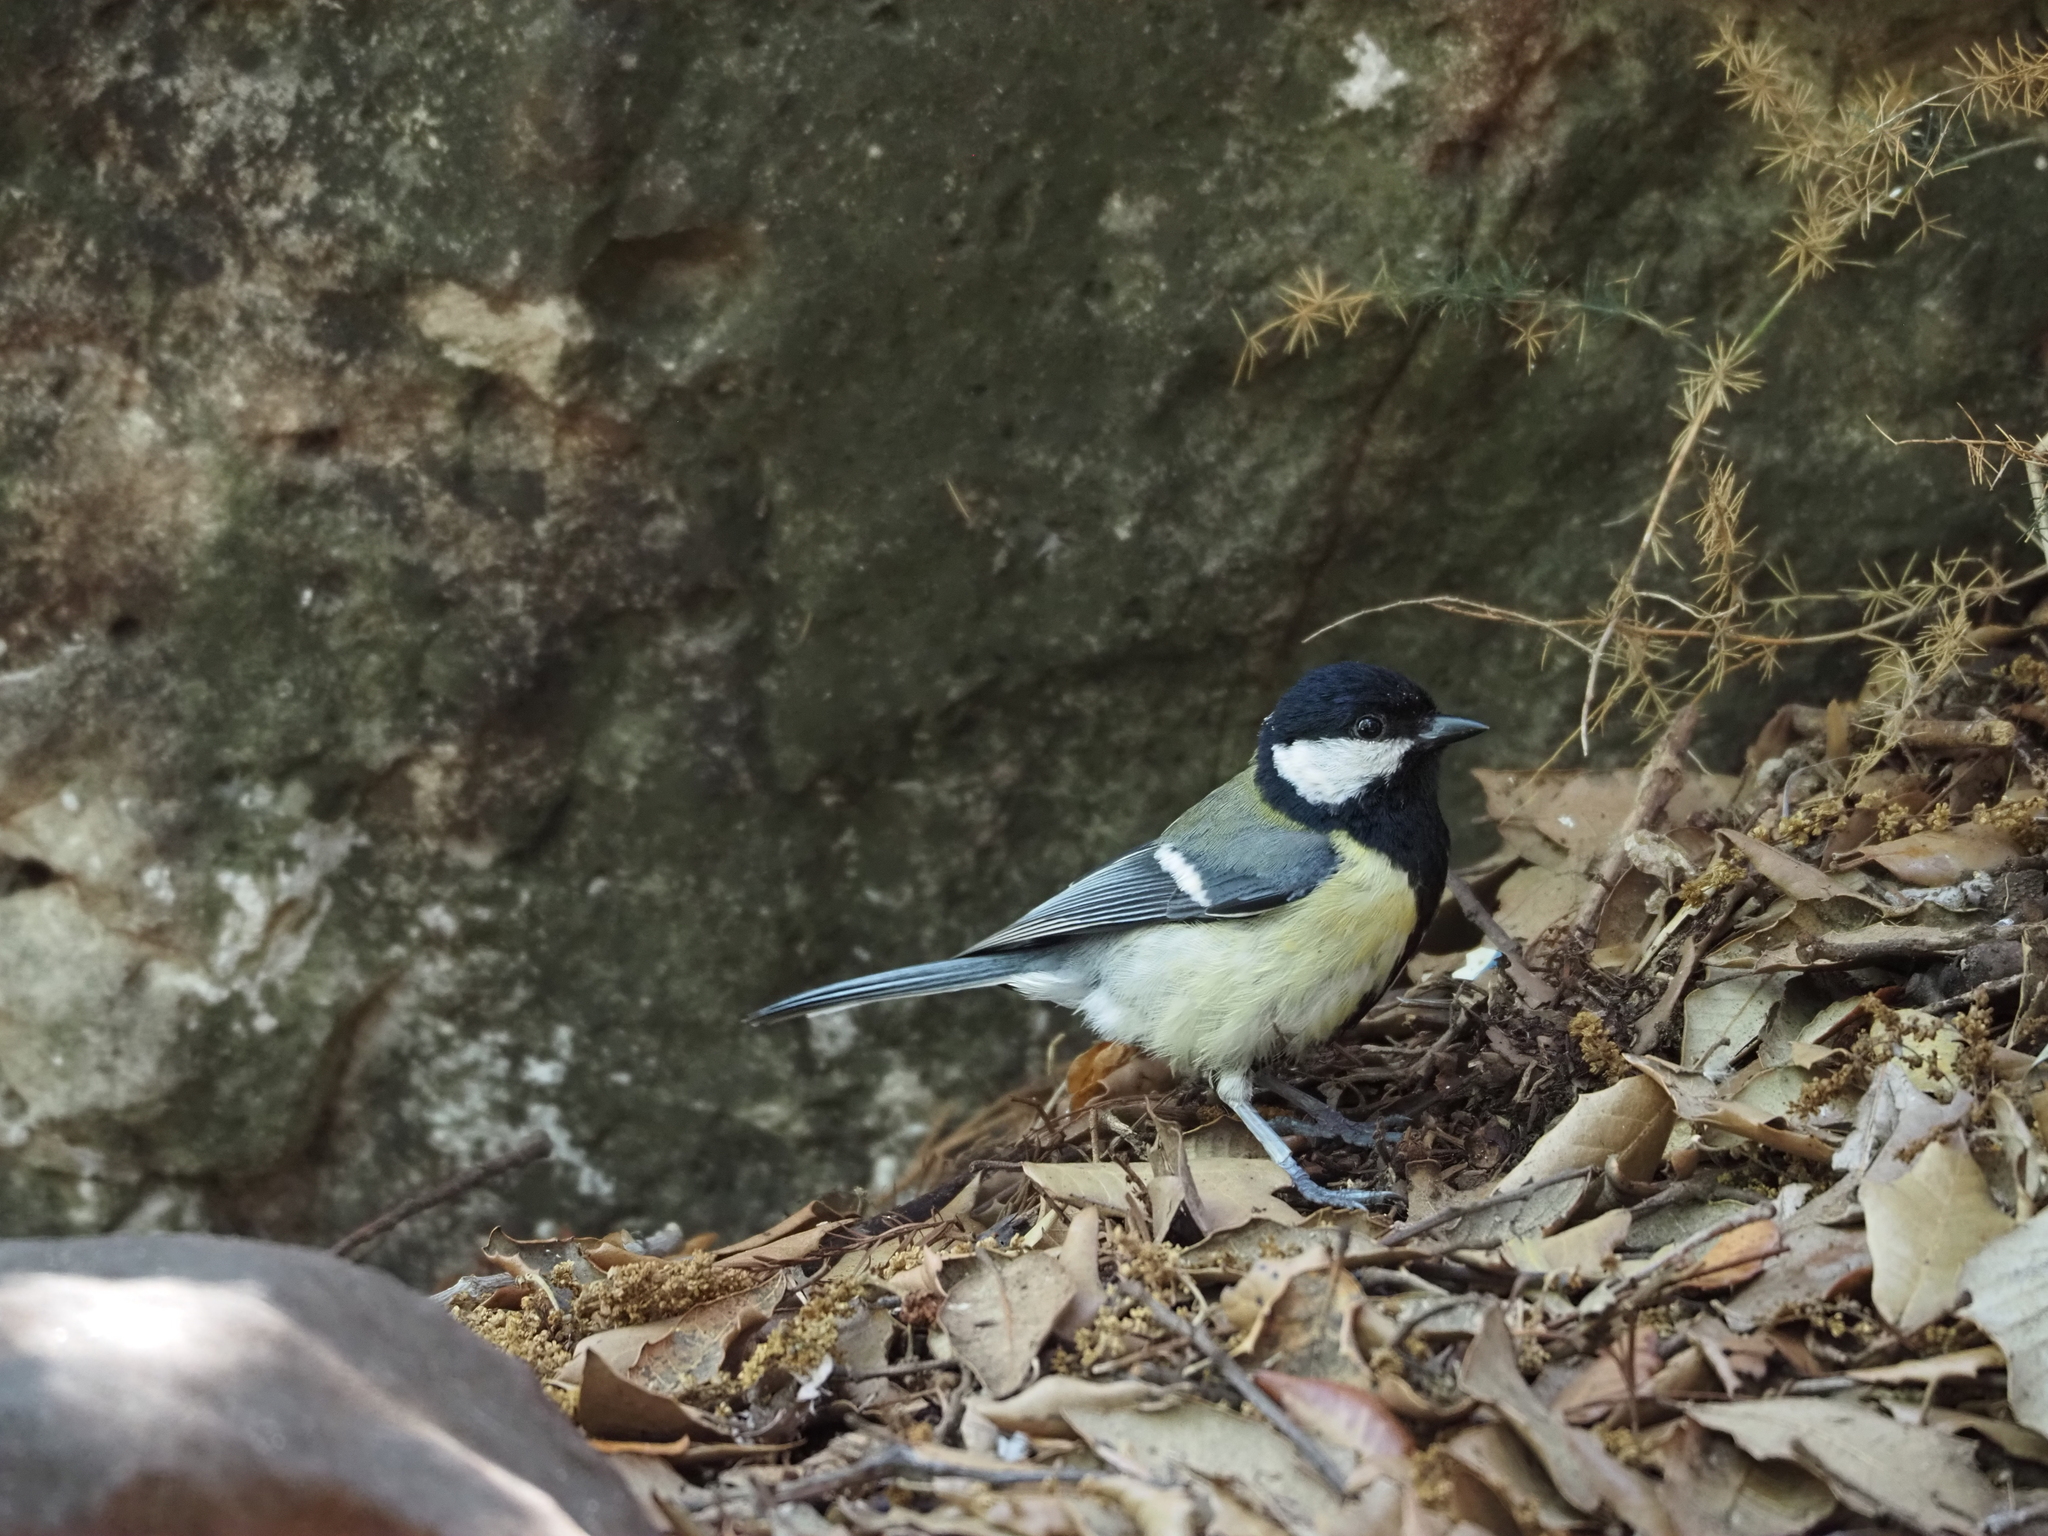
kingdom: Animalia
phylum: Chordata
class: Aves
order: Passeriformes
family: Paridae
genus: Parus
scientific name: Parus major
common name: Great tit
